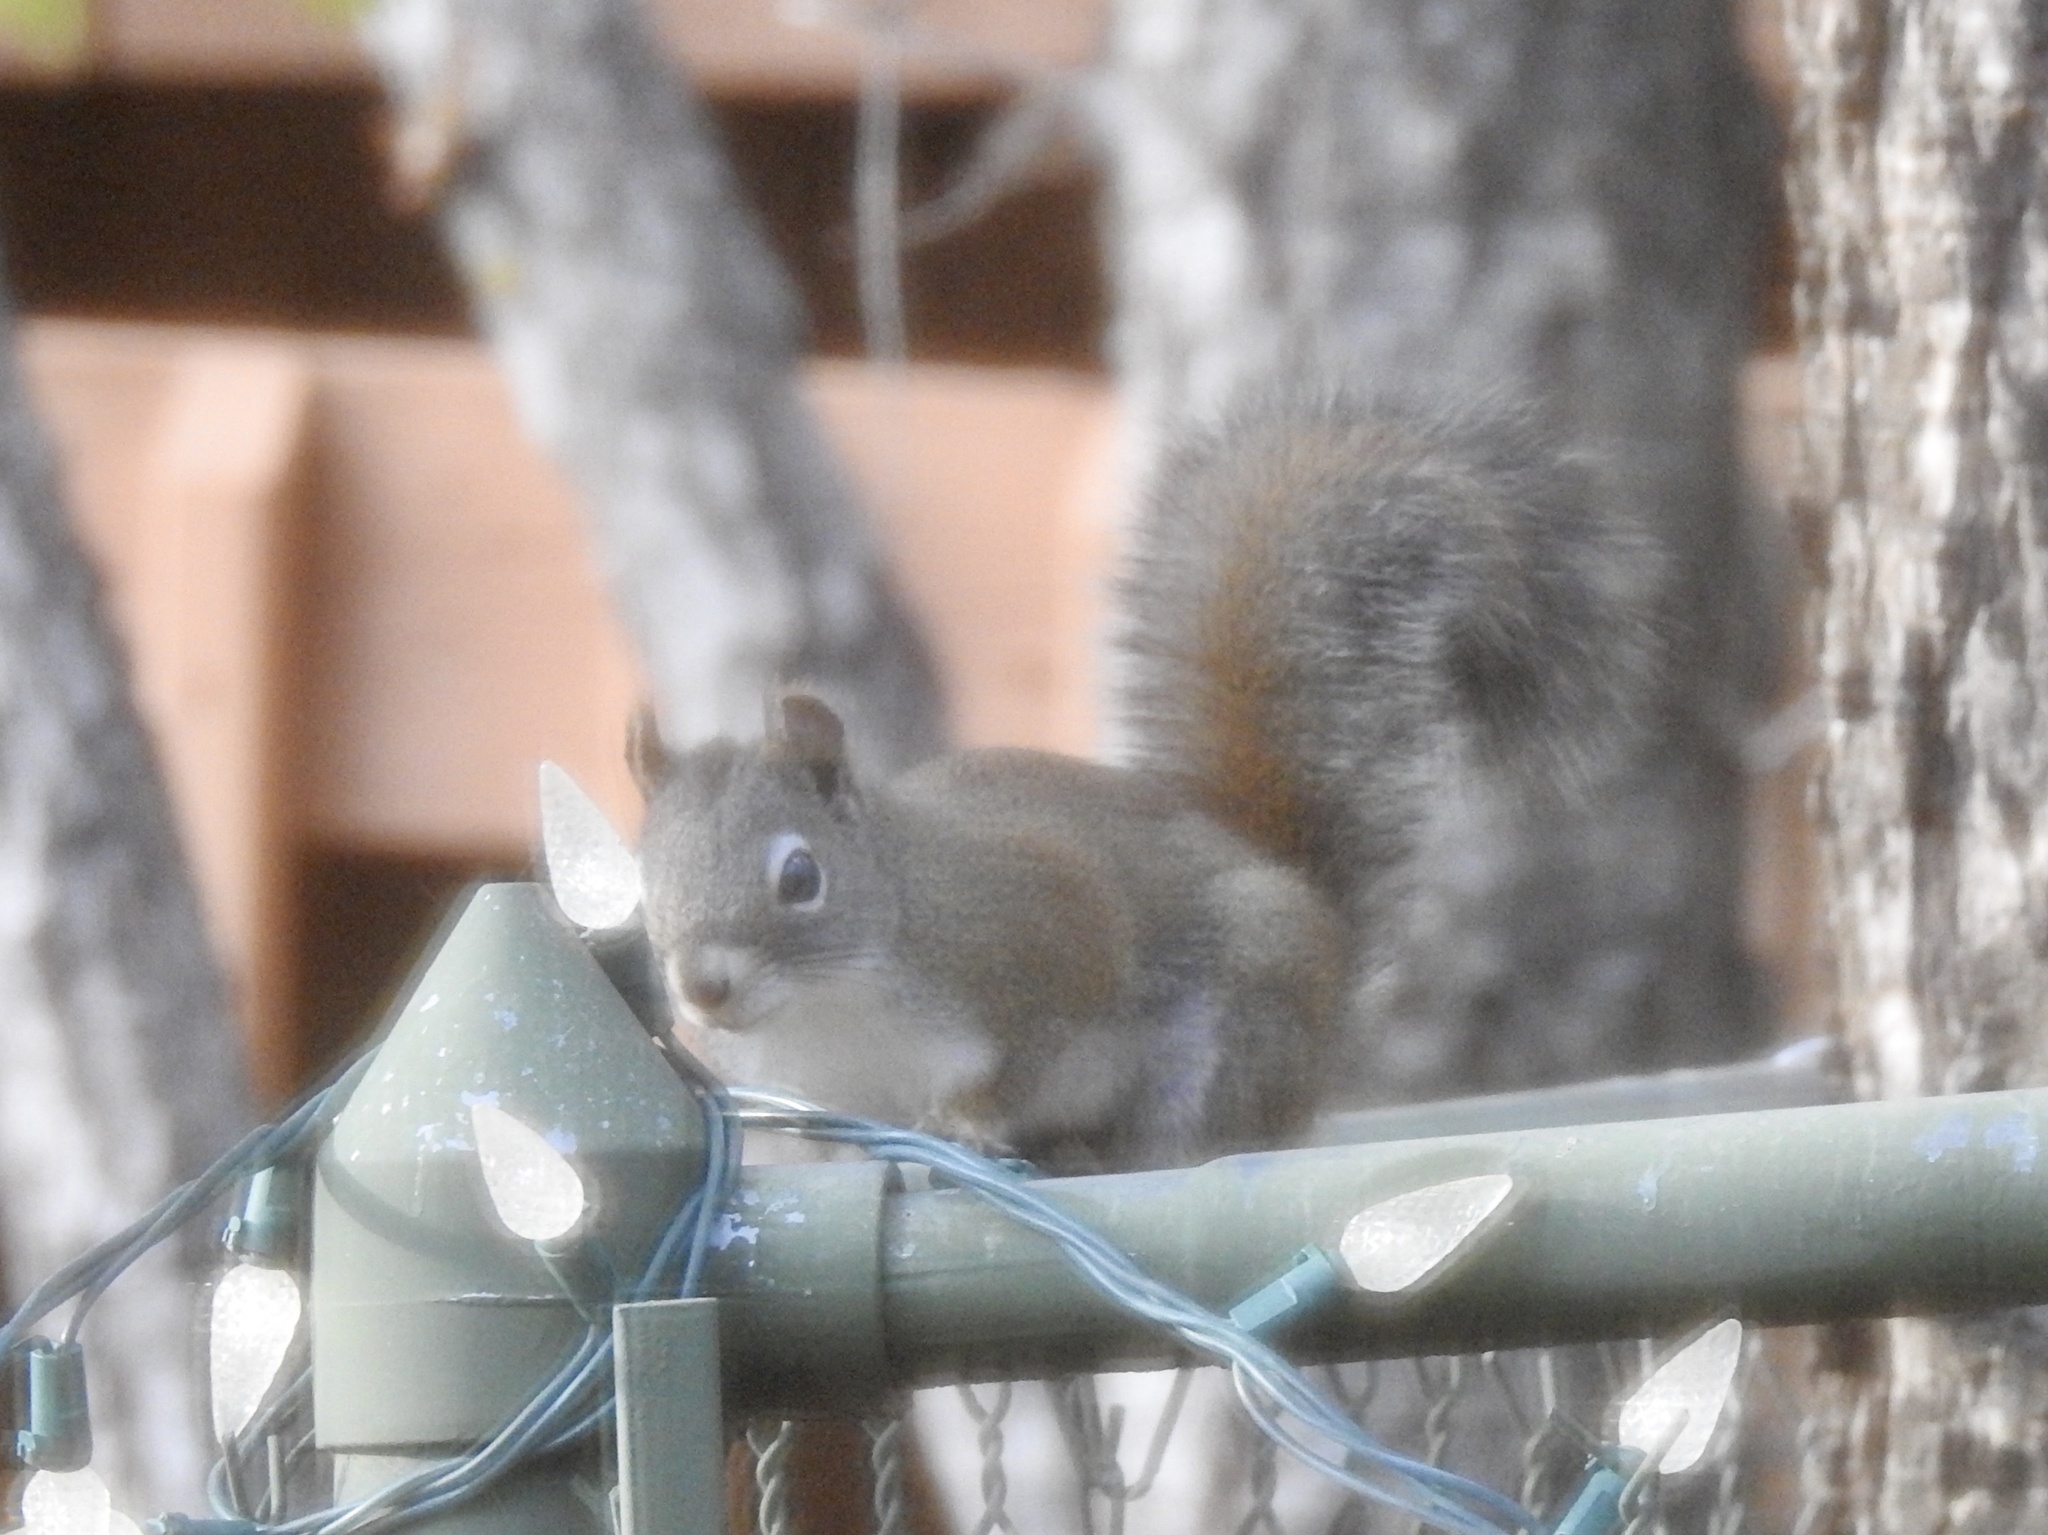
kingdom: Animalia
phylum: Chordata
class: Mammalia
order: Rodentia
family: Sciuridae
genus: Tamiasciurus
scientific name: Tamiasciurus hudsonicus
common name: Red squirrel
